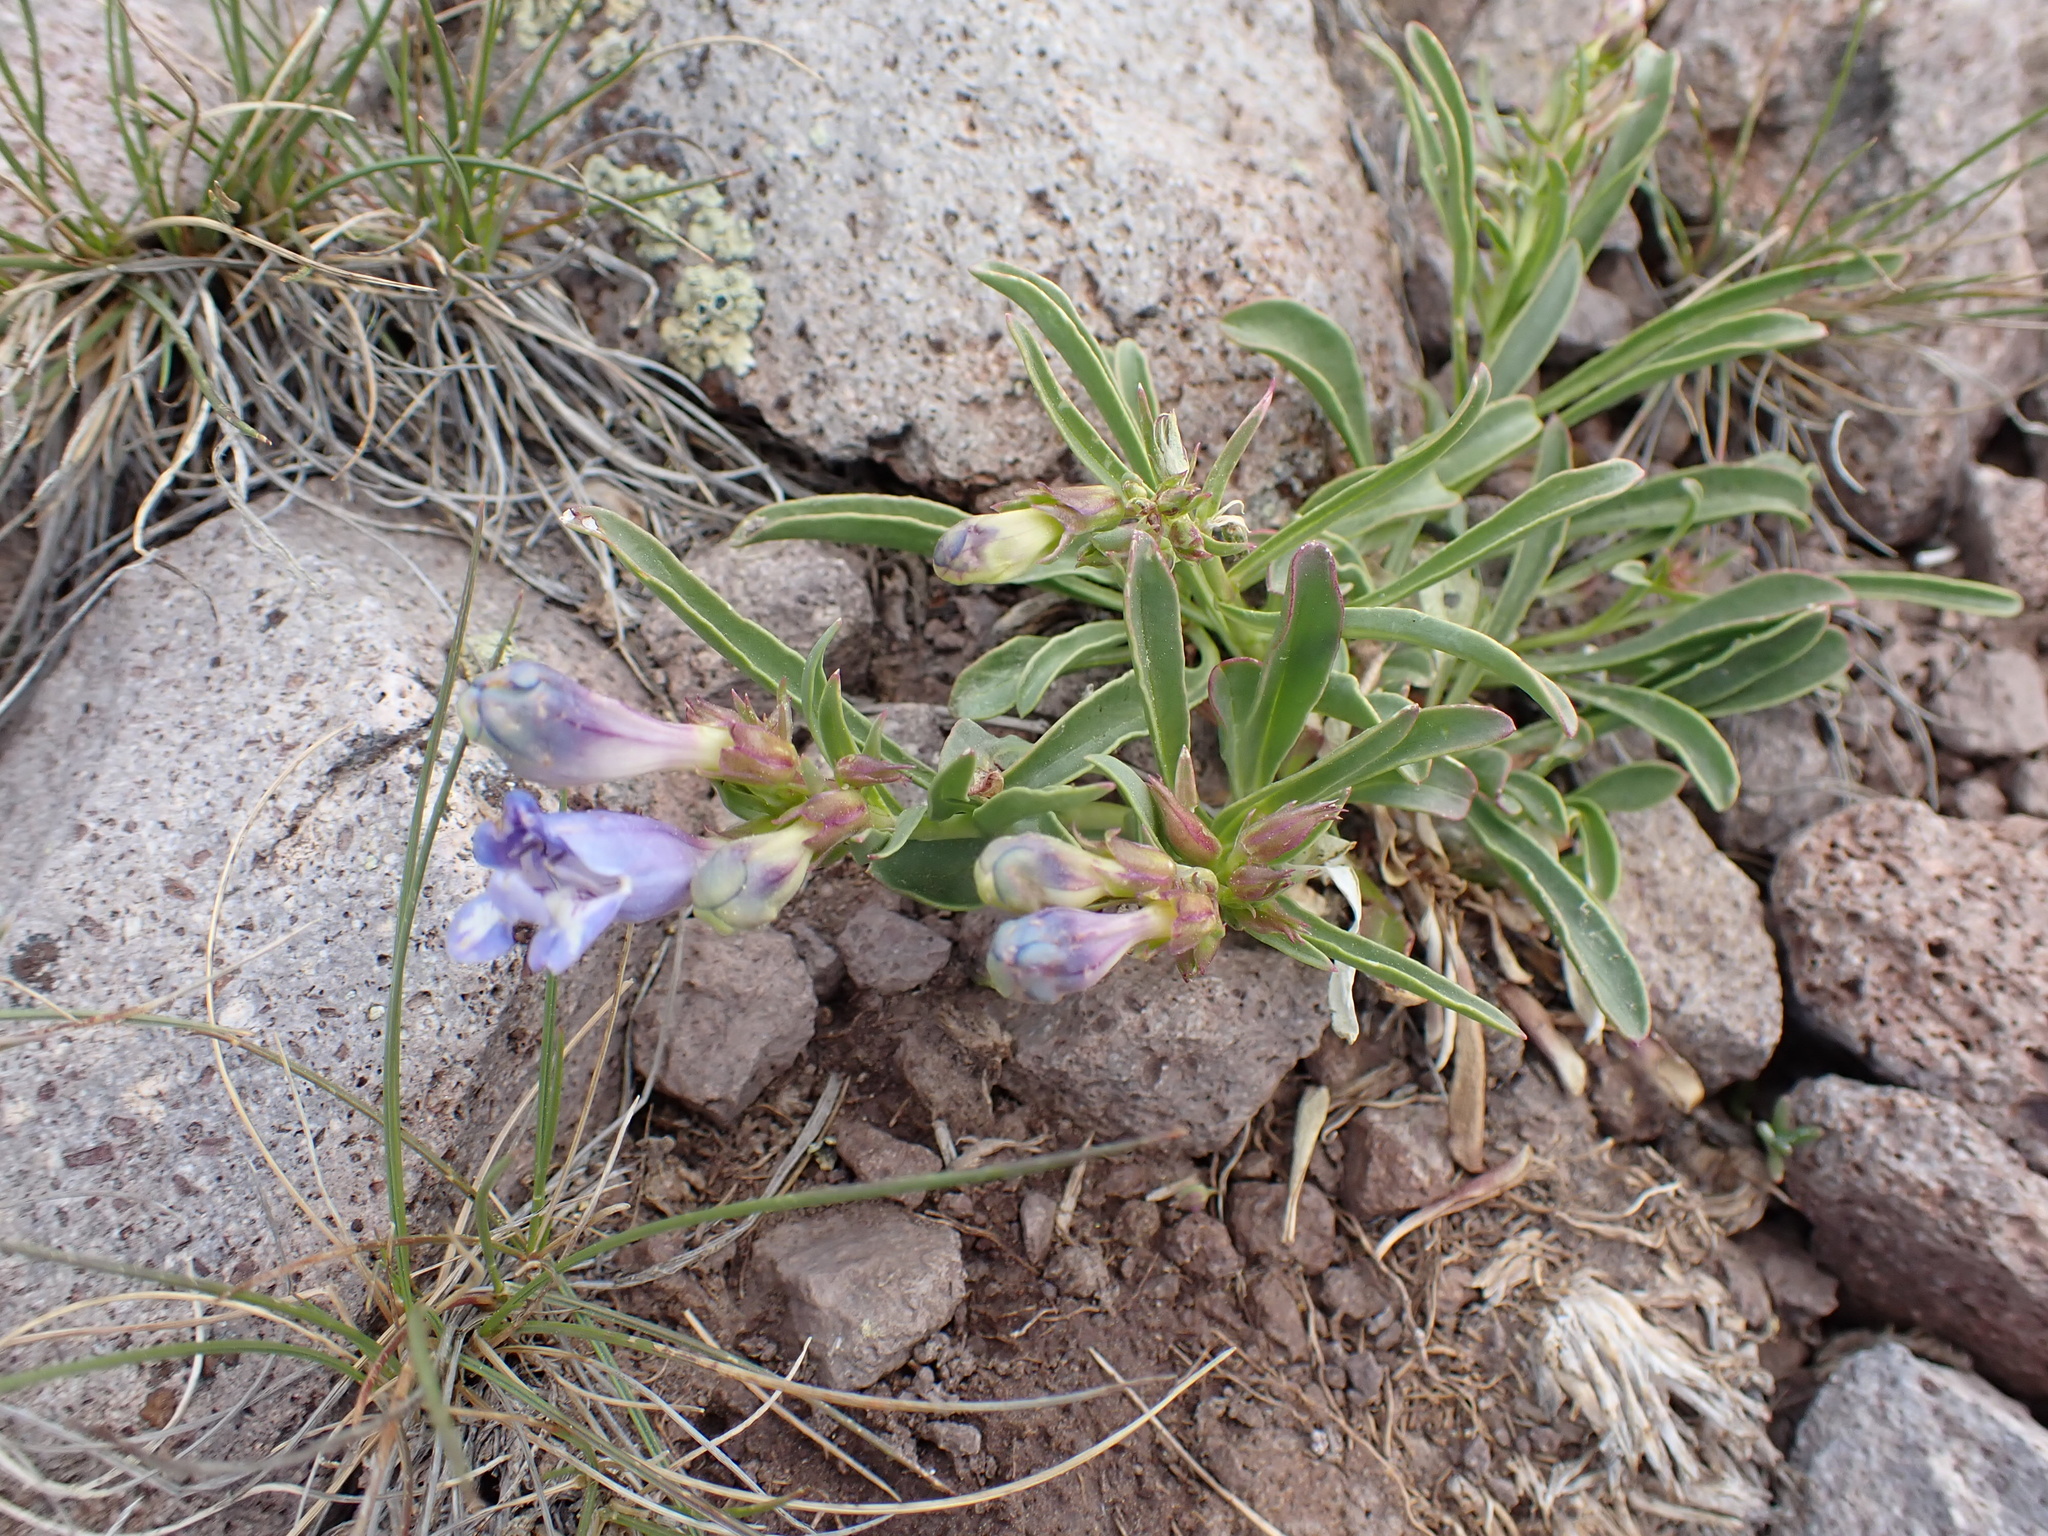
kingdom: Plantae
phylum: Tracheophyta
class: Magnoliopsida
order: Lamiales
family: Plantaginaceae
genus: Penstemon
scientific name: Penstemon speciosus
